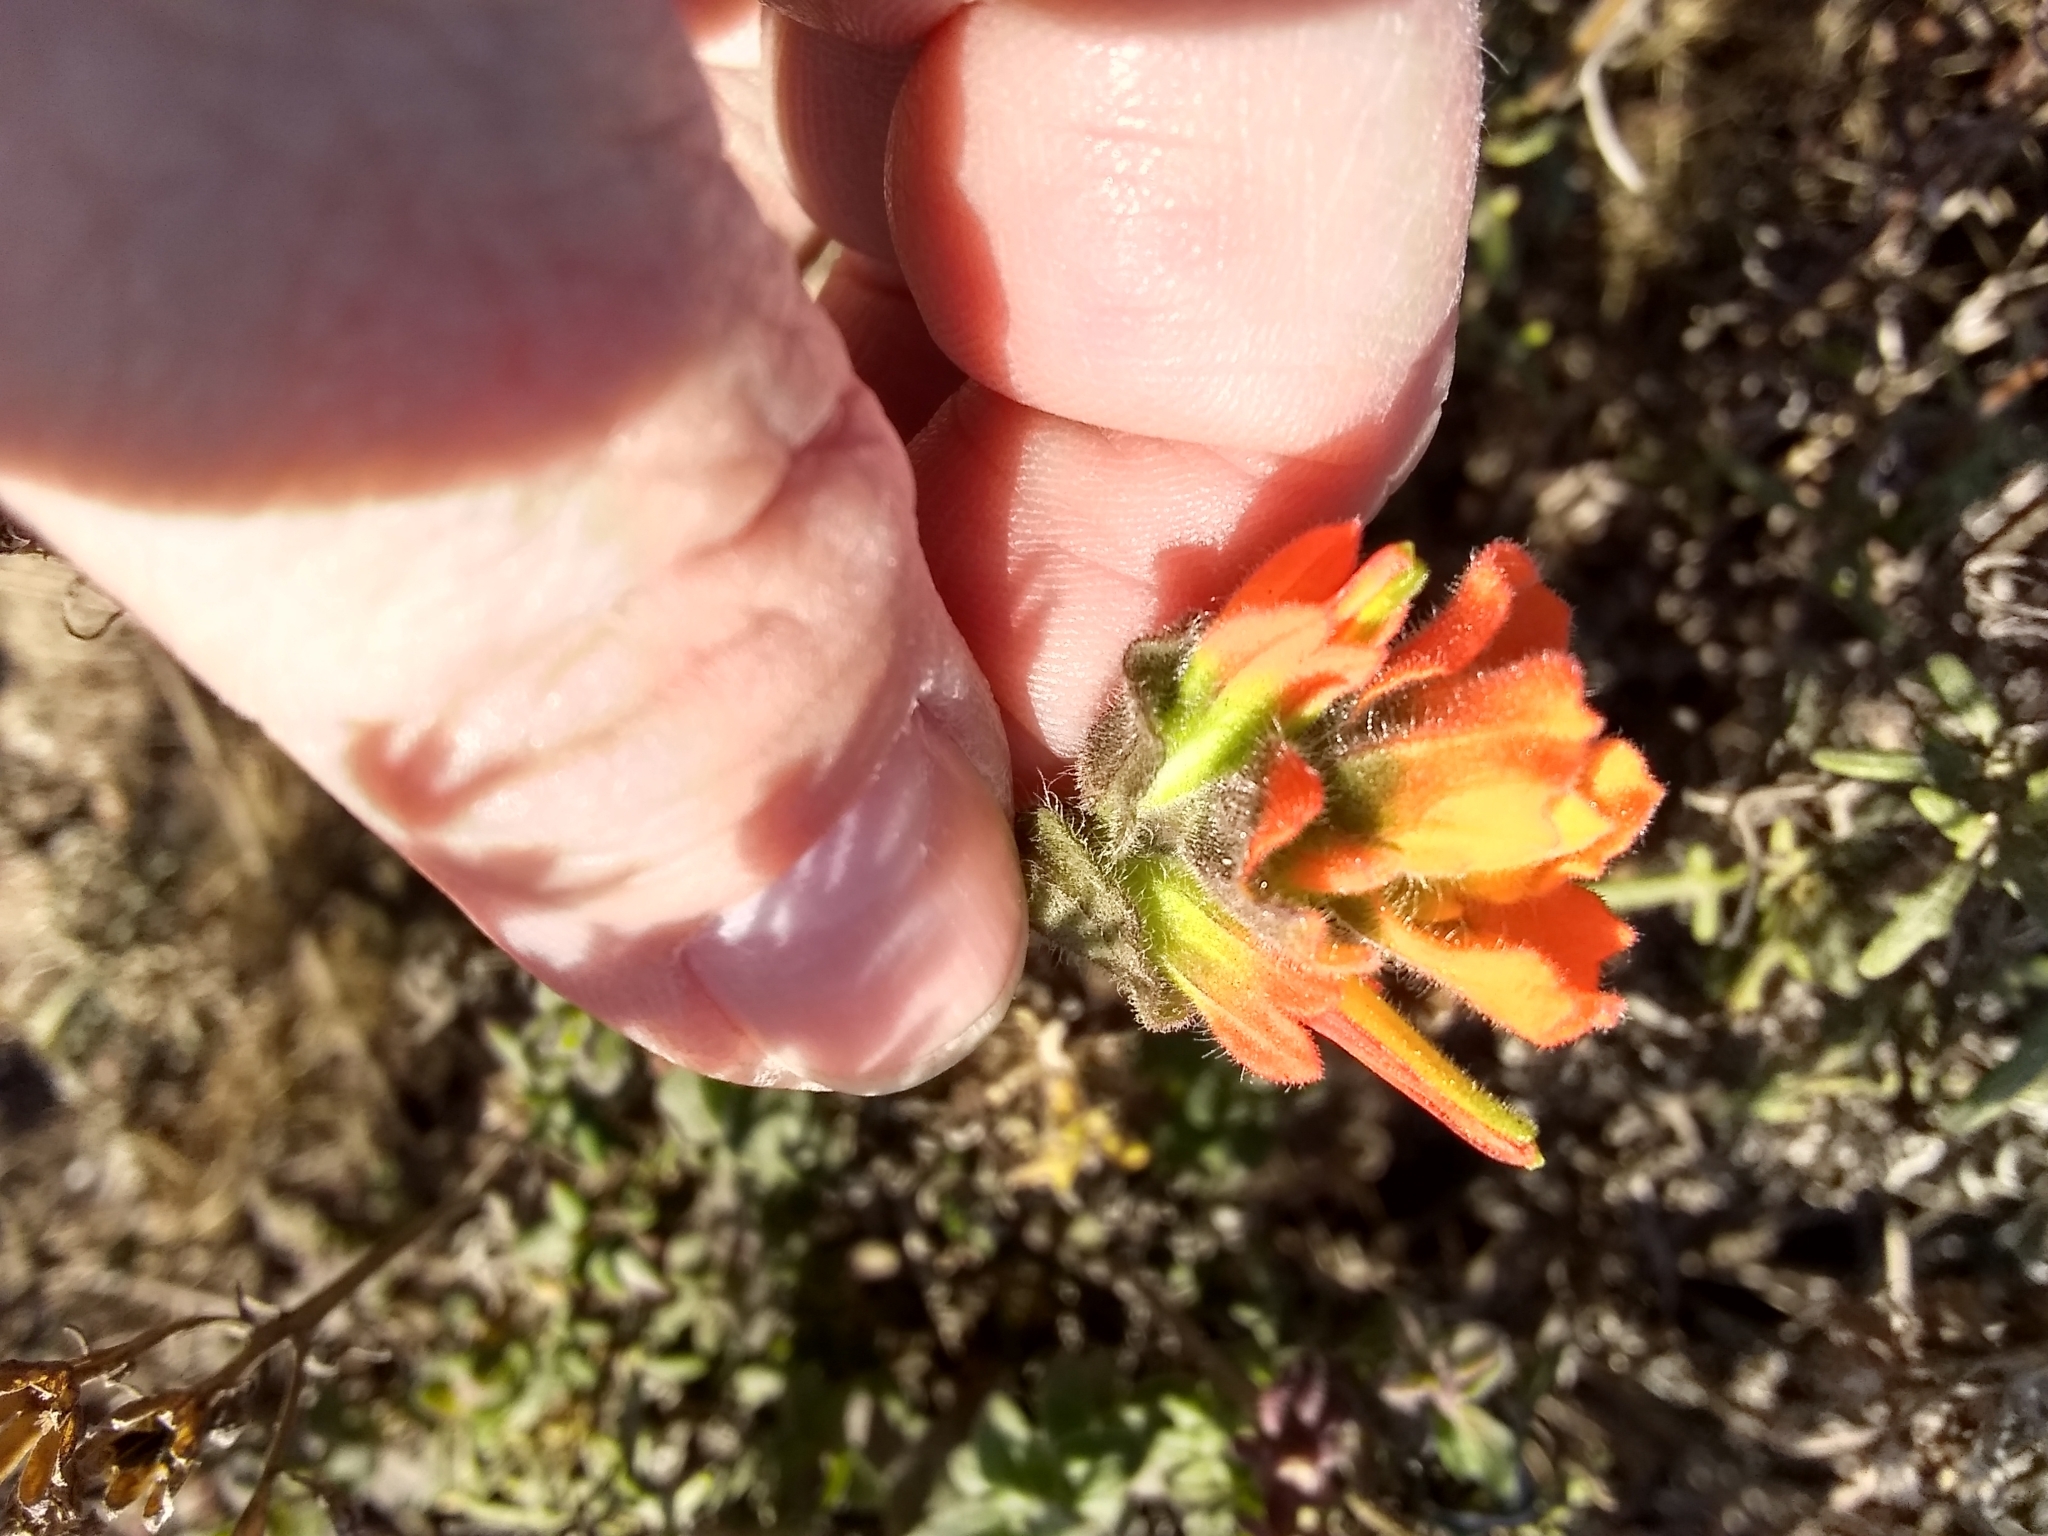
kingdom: Plantae
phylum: Tracheophyta
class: Magnoliopsida
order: Lamiales
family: Orobanchaceae
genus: Castilleja
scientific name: Castilleja latifolia
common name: Monterey indian paintbrush
